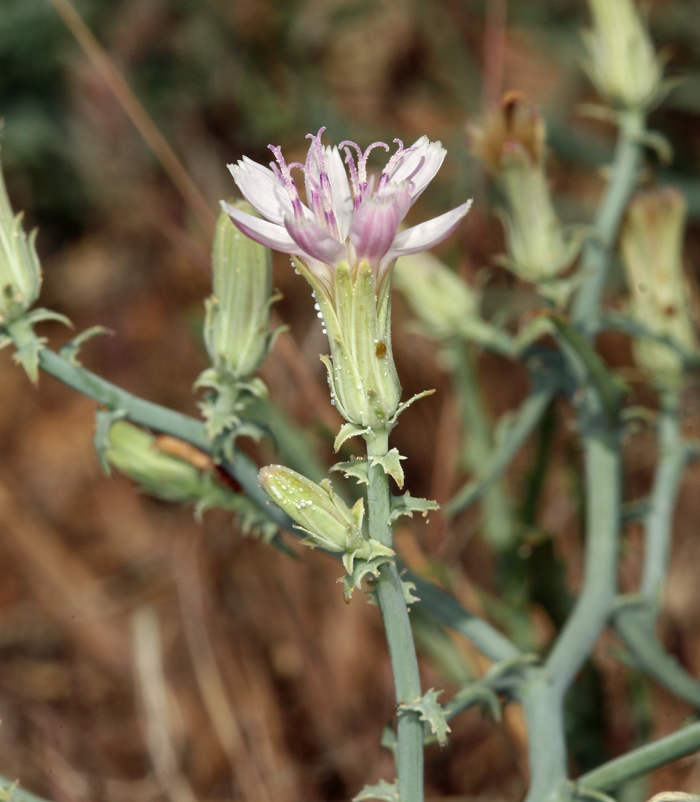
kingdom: Plantae
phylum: Tracheophyta
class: Magnoliopsida
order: Asterales
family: Asteraceae
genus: Stephanomeria
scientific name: Stephanomeria parryi
